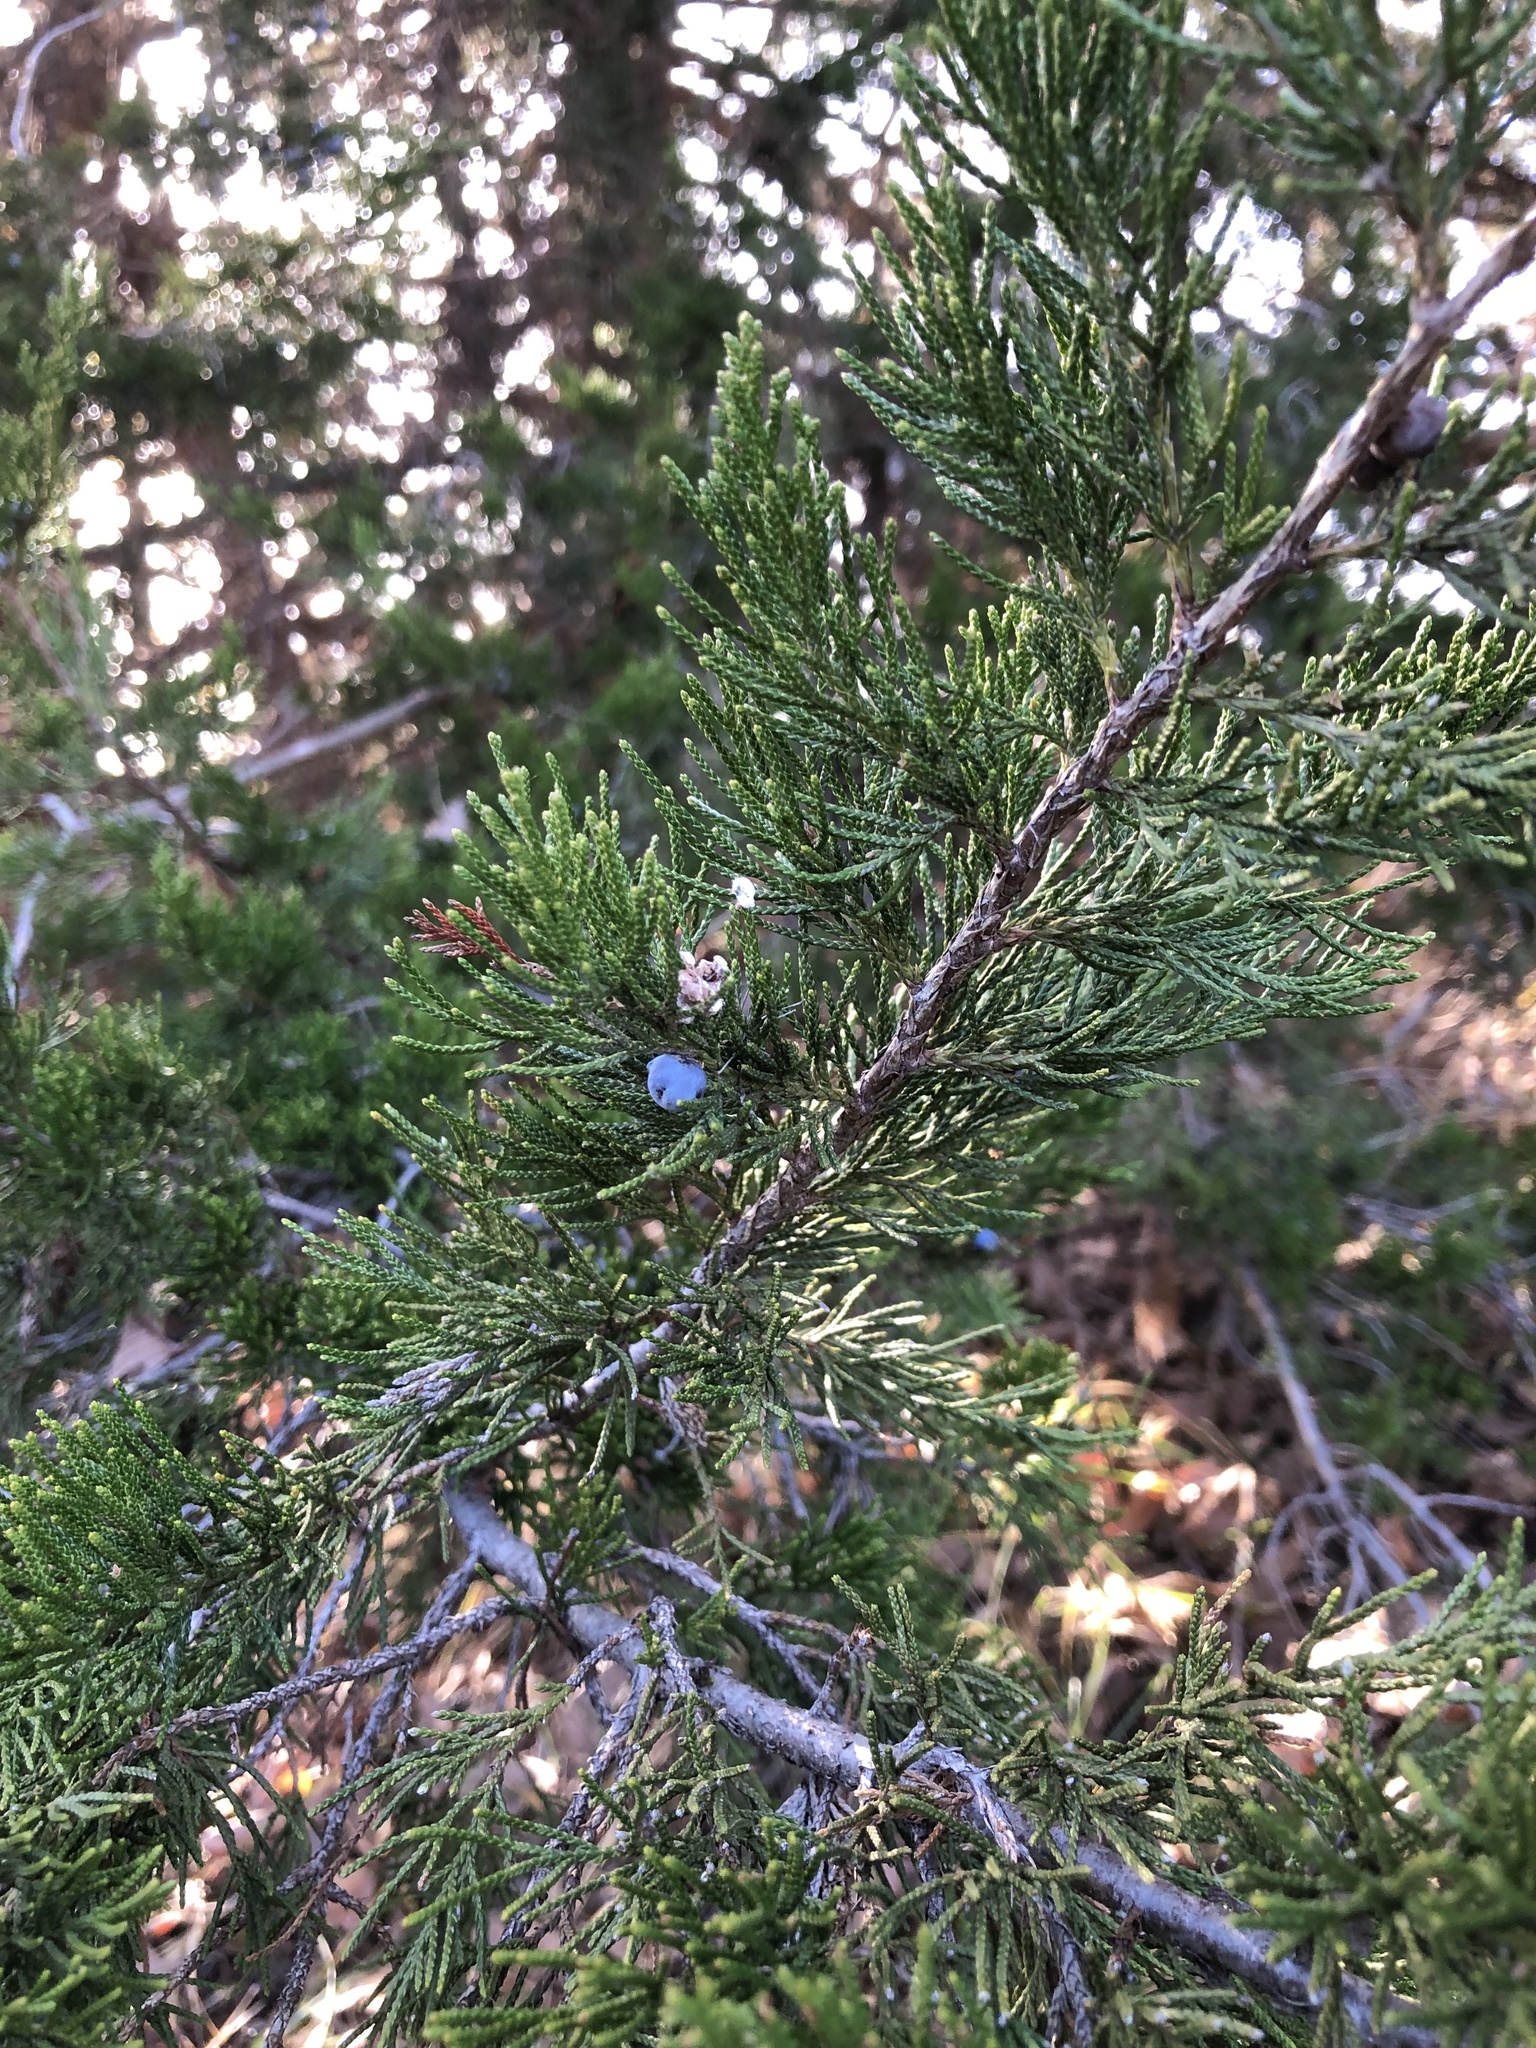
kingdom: Plantae
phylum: Tracheophyta
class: Pinopsida
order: Pinales
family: Cupressaceae
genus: Juniperus
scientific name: Juniperus virginiana
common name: Red juniper
